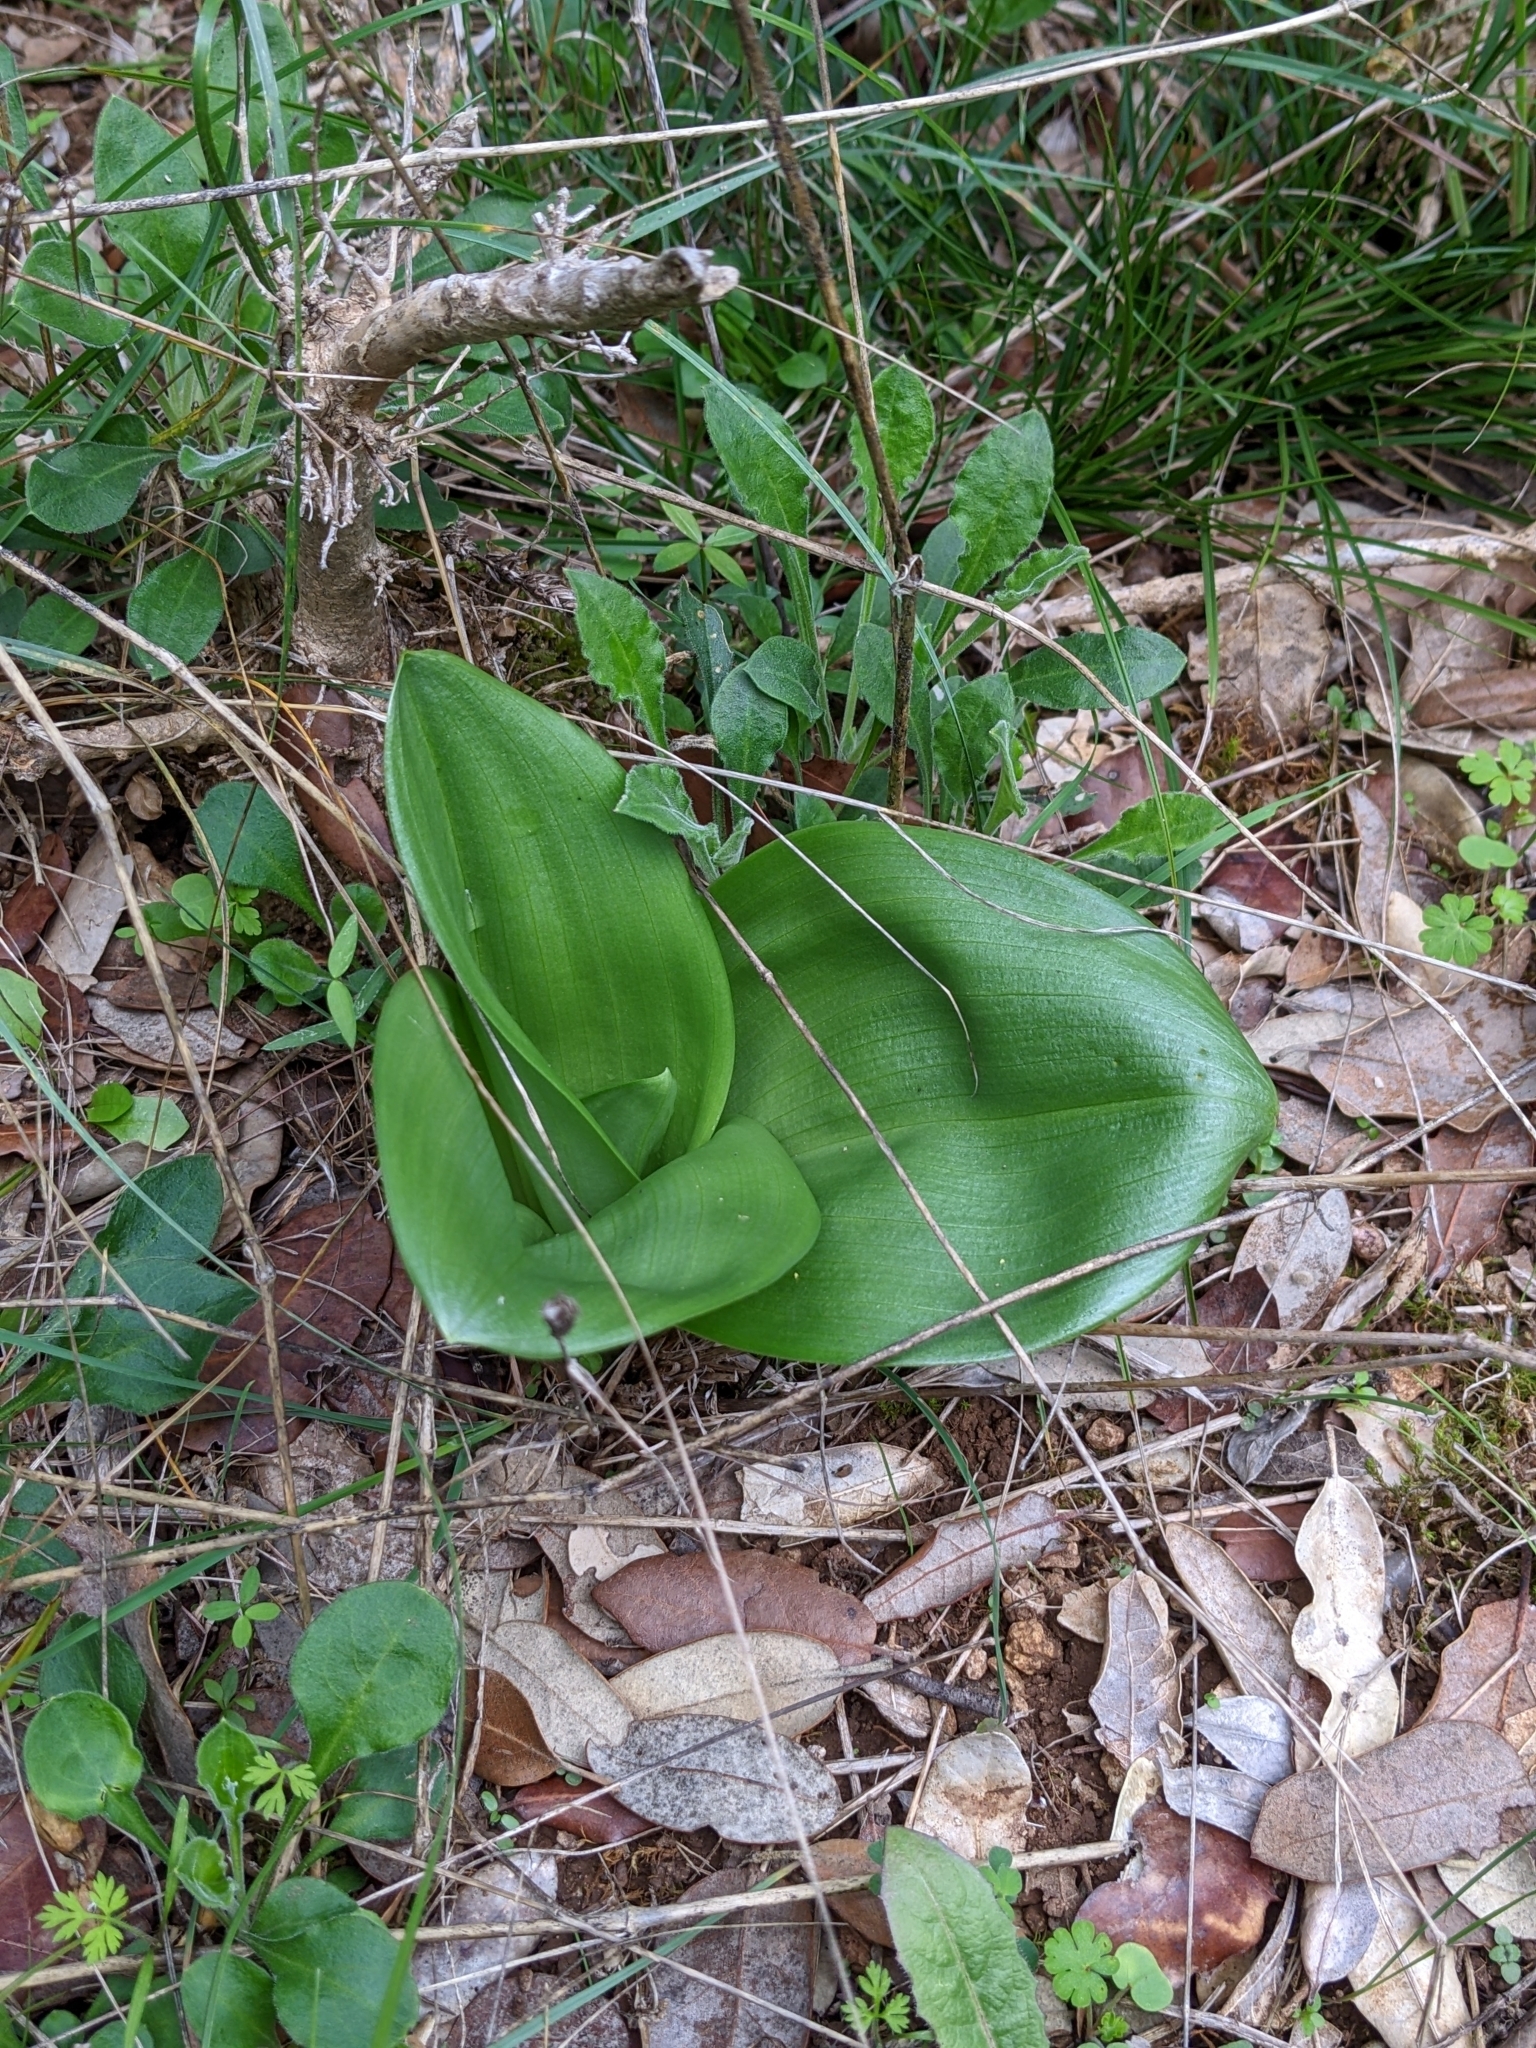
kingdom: Plantae
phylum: Tracheophyta
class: Liliopsida
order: Asparagales
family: Orchidaceae
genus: Himantoglossum
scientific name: Himantoglossum robertianum
